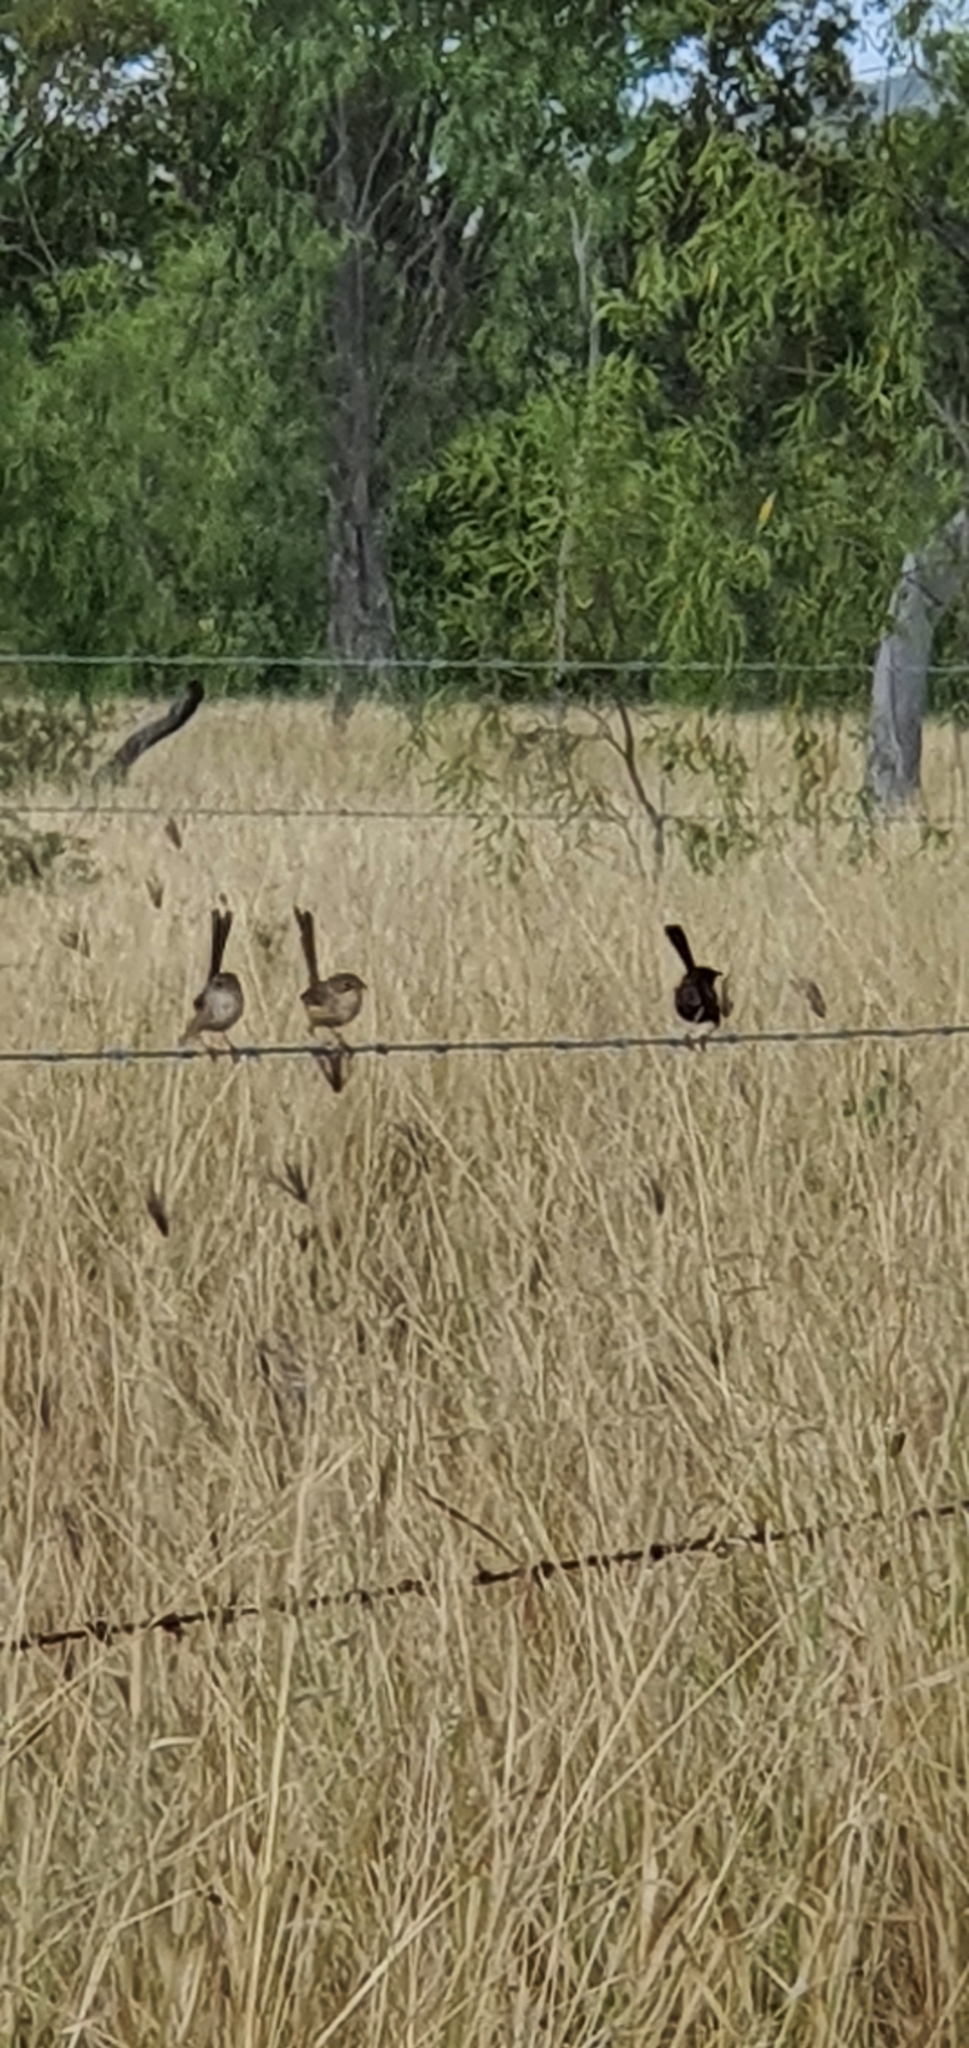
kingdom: Animalia
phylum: Chordata
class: Aves
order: Passeriformes
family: Maluridae
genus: Malurus
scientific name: Malurus melanocephalus
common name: Red-backed fairywren
